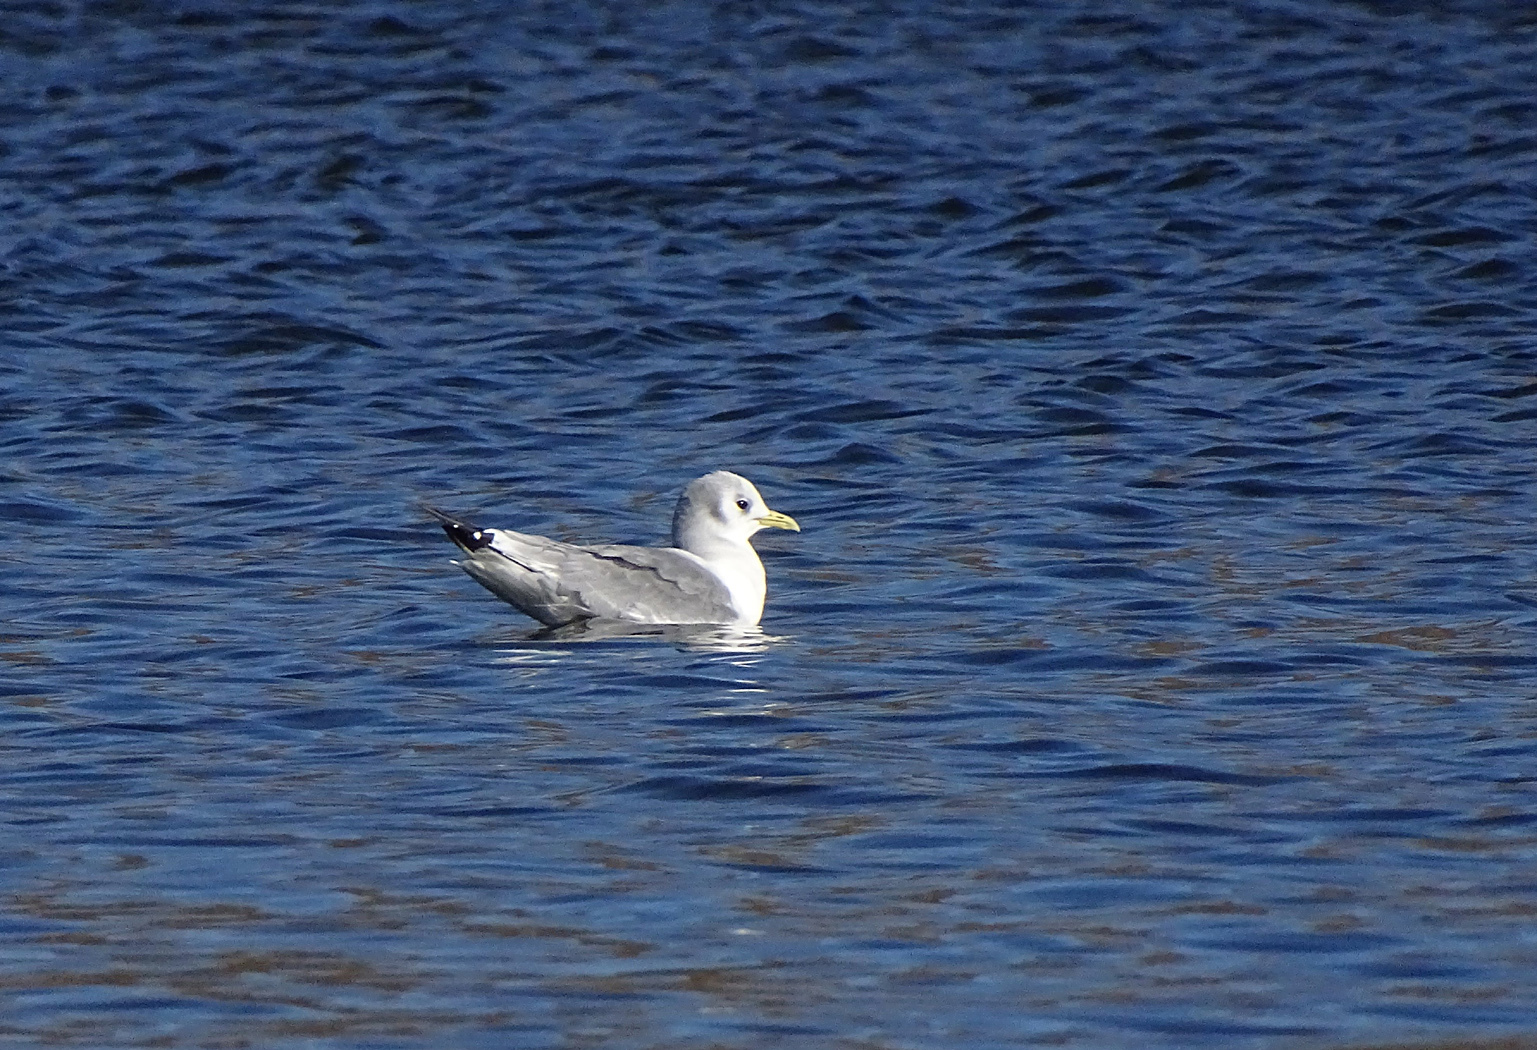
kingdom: Animalia
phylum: Chordata
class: Aves
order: Charadriiformes
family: Laridae
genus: Rissa
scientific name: Rissa tridactyla
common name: Black-legged kittiwake
